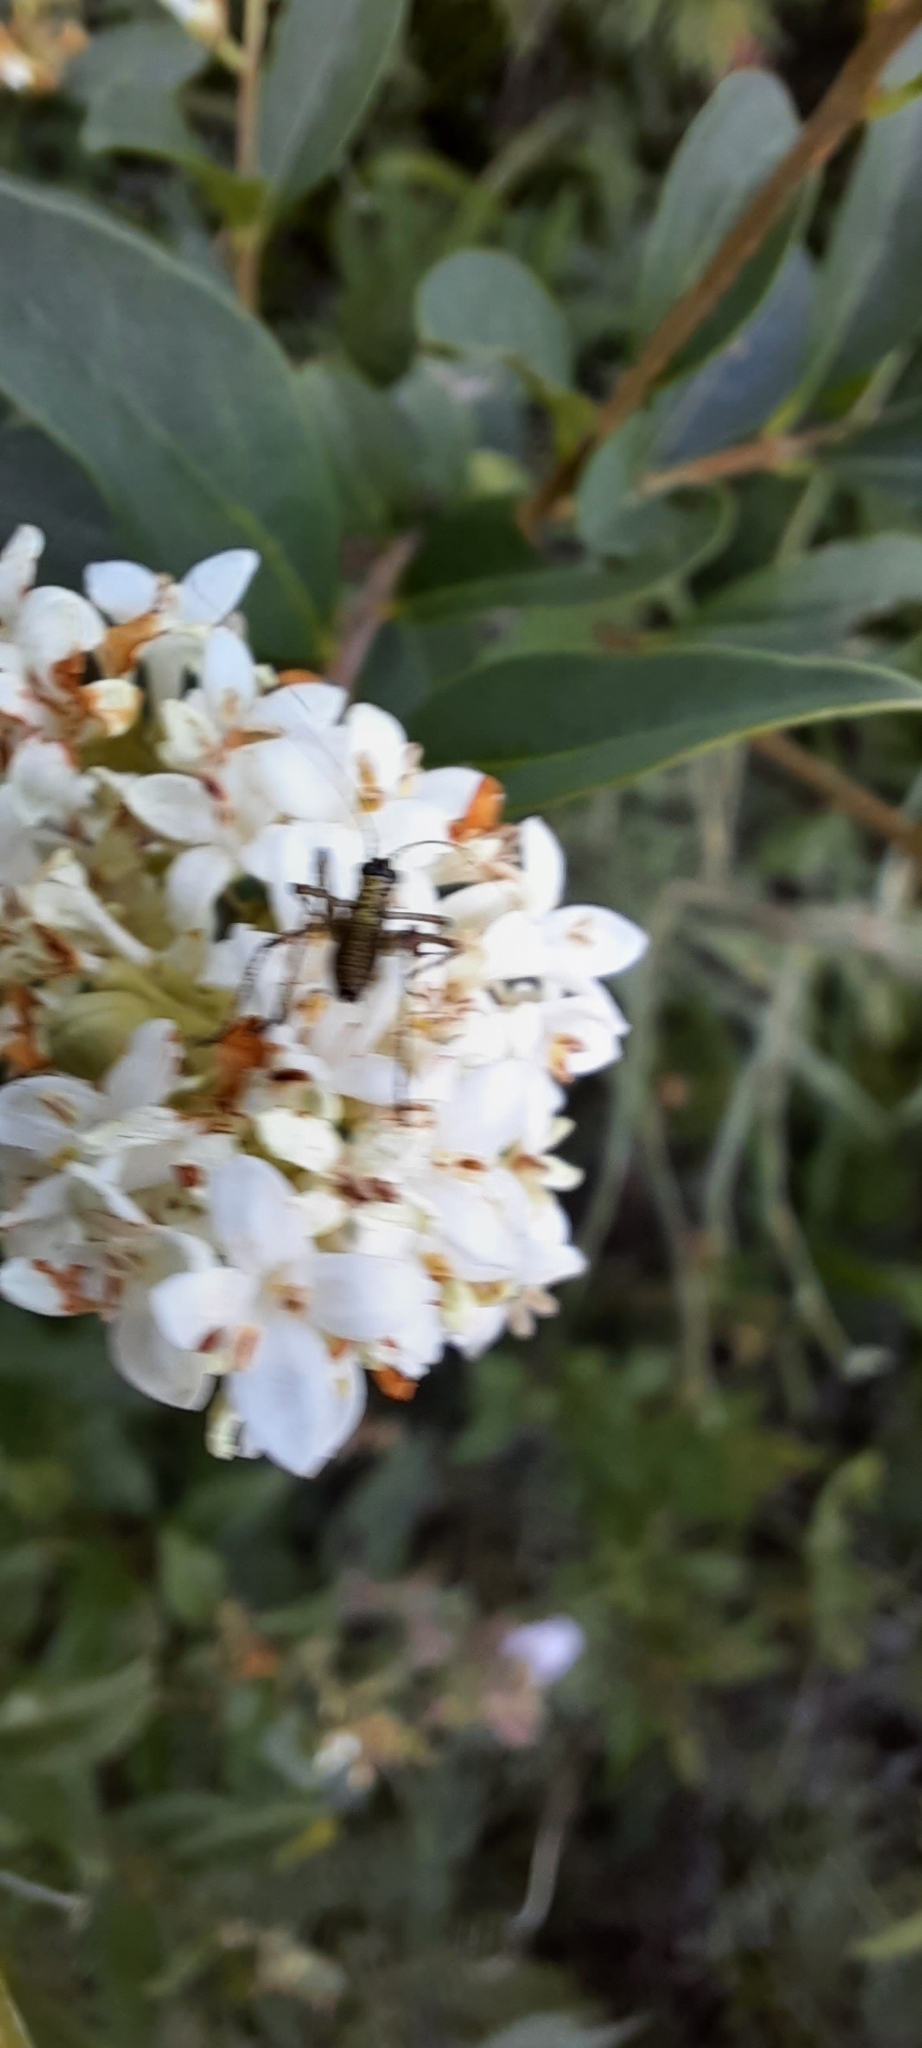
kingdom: Animalia
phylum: Arthropoda
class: Insecta
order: Orthoptera
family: Tettigoniidae
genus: Phaneroptera
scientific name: Phaneroptera nana
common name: Southern sickle bush-cricket
